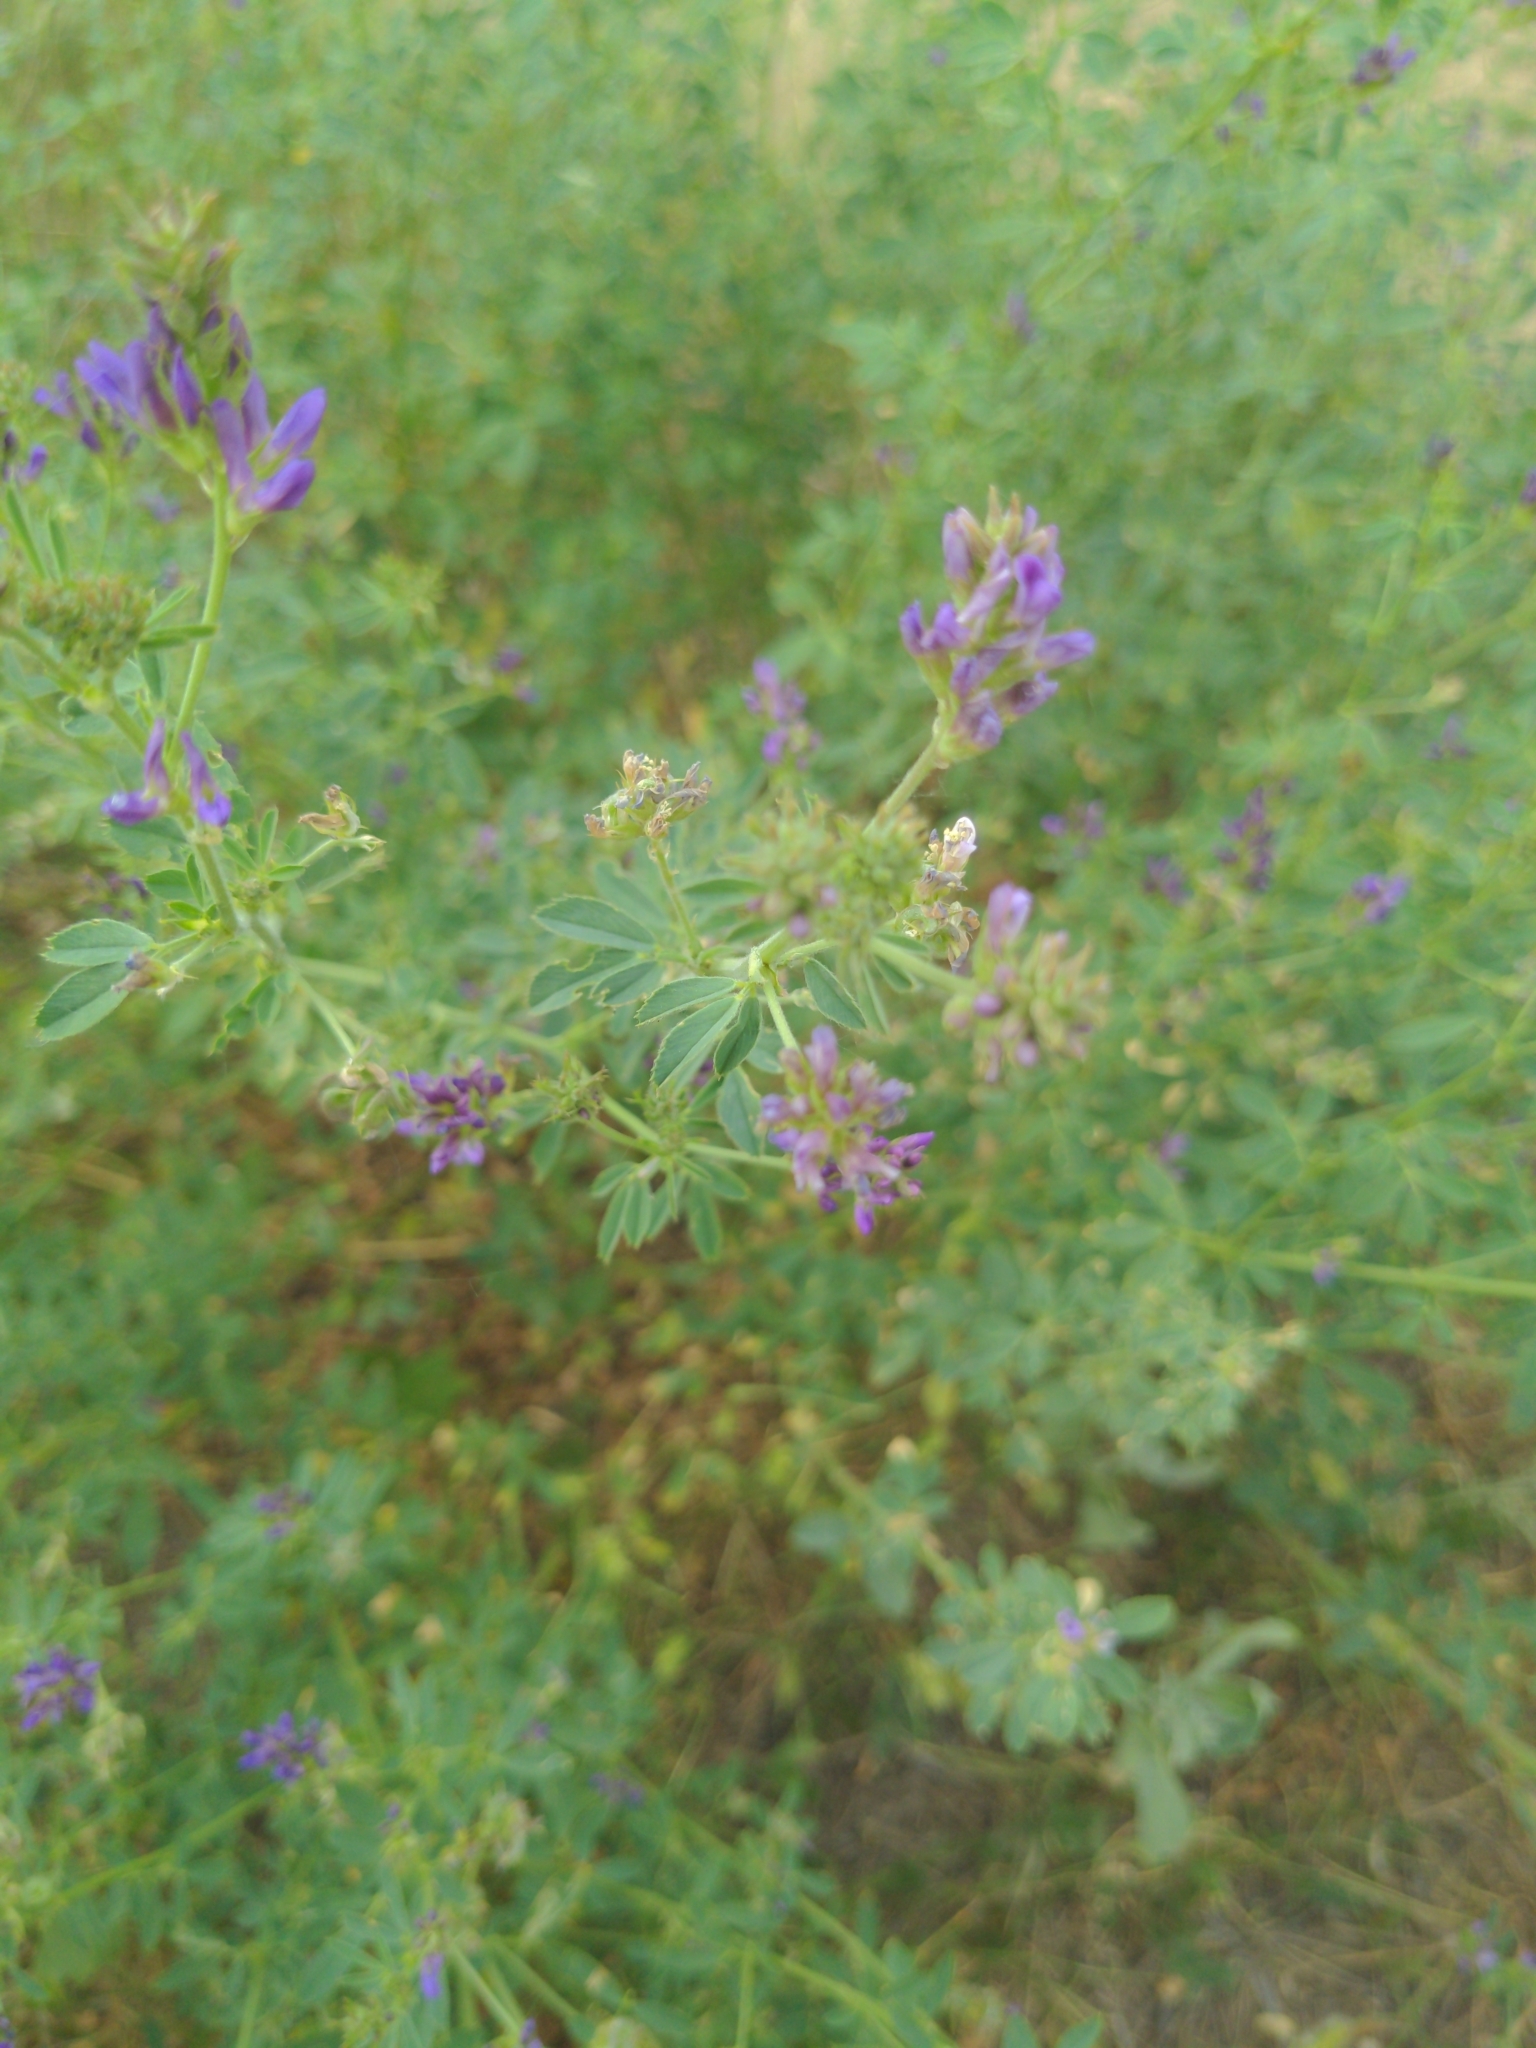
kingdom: Plantae
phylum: Tracheophyta
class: Magnoliopsida
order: Fabales
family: Fabaceae
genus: Medicago
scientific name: Medicago sativa
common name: Alfalfa
